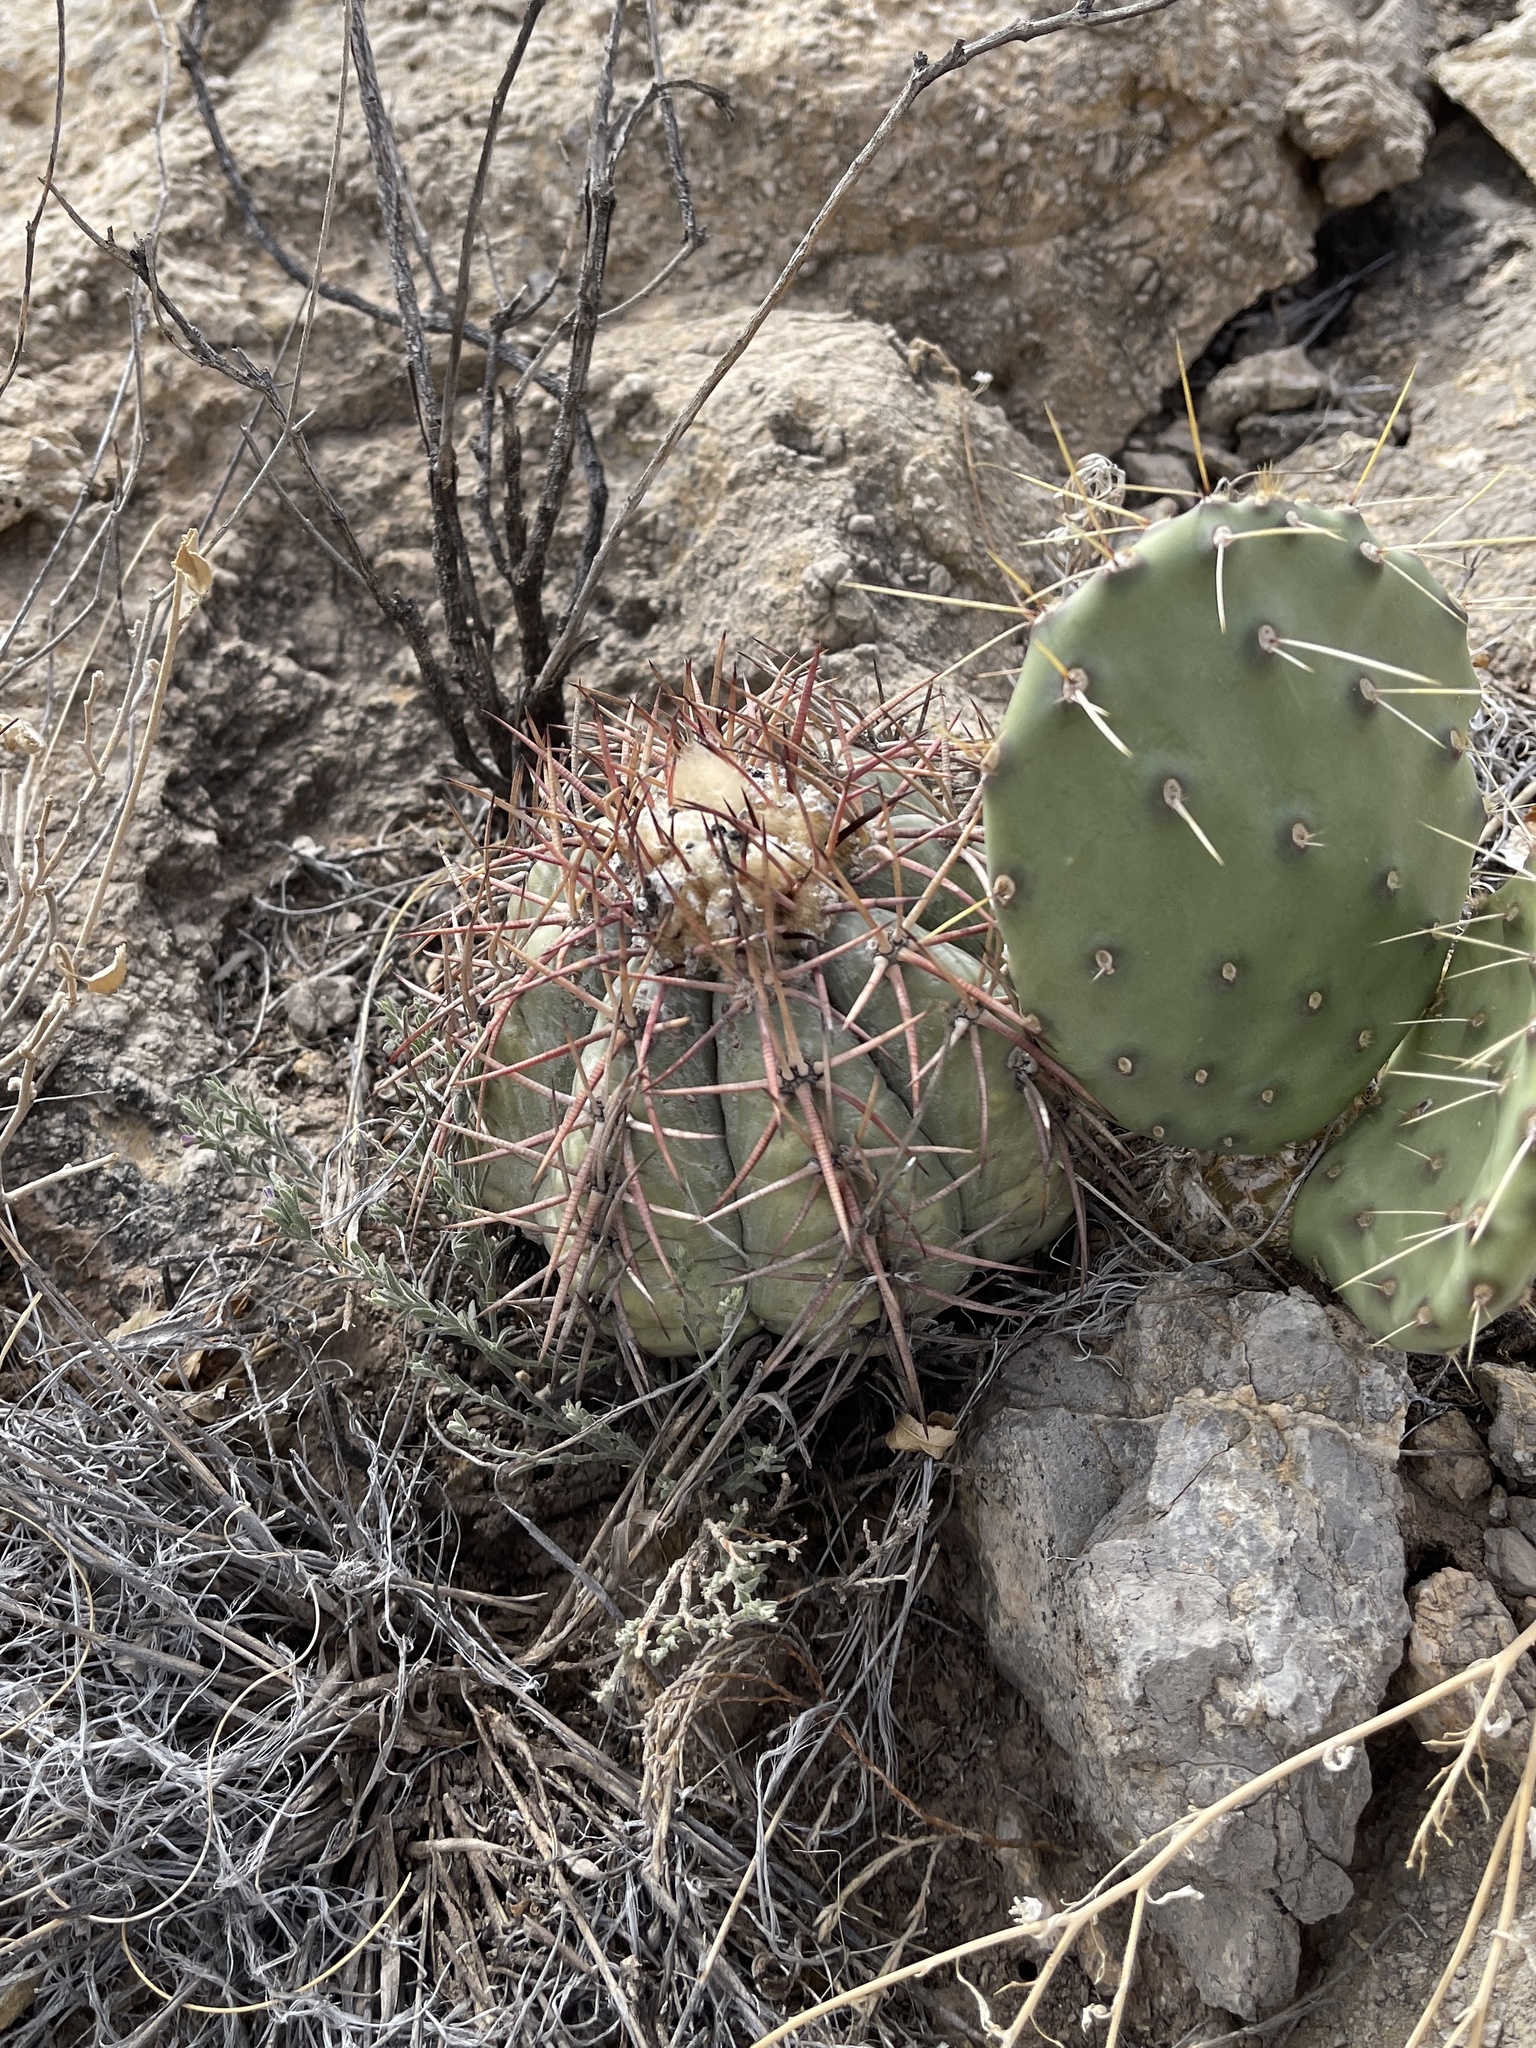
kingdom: Plantae
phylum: Tracheophyta
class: Magnoliopsida
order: Caryophyllales
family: Cactaceae
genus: Echinocactus
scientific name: Echinocactus horizonthalonius
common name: Devilshead
